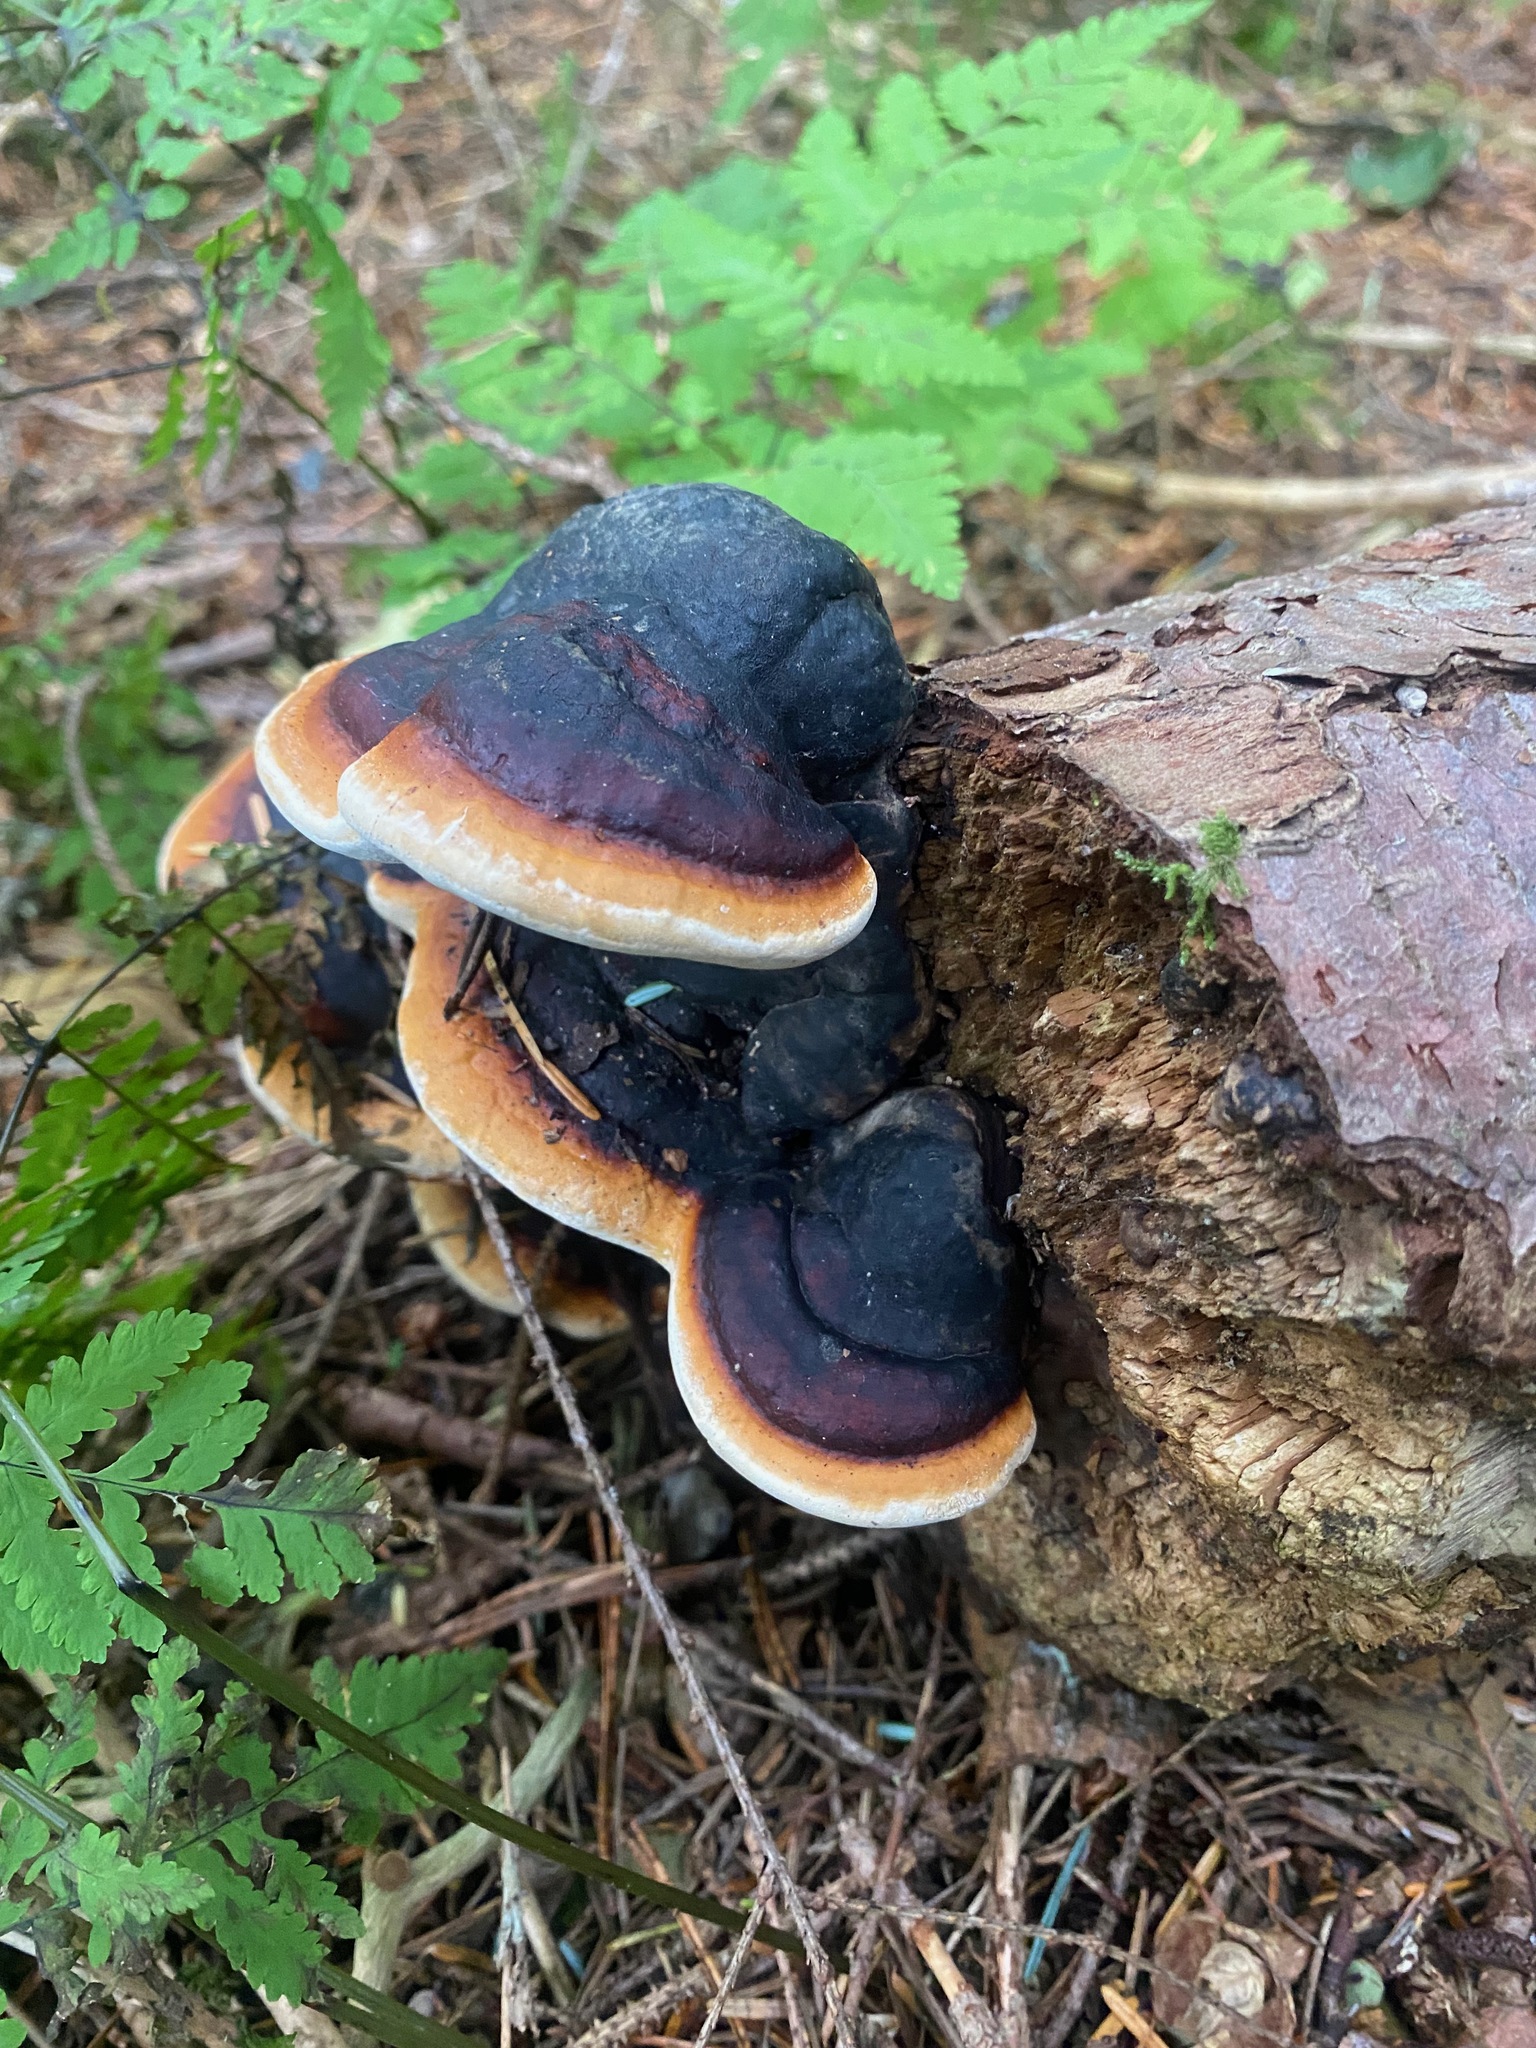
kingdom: Fungi
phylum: Basidiomycota
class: Agaricomycetes
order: Polyporales
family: Fomitopsidaceae
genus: Fomitopsis
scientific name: Fomitopsis mounceae
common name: Northern red belt
